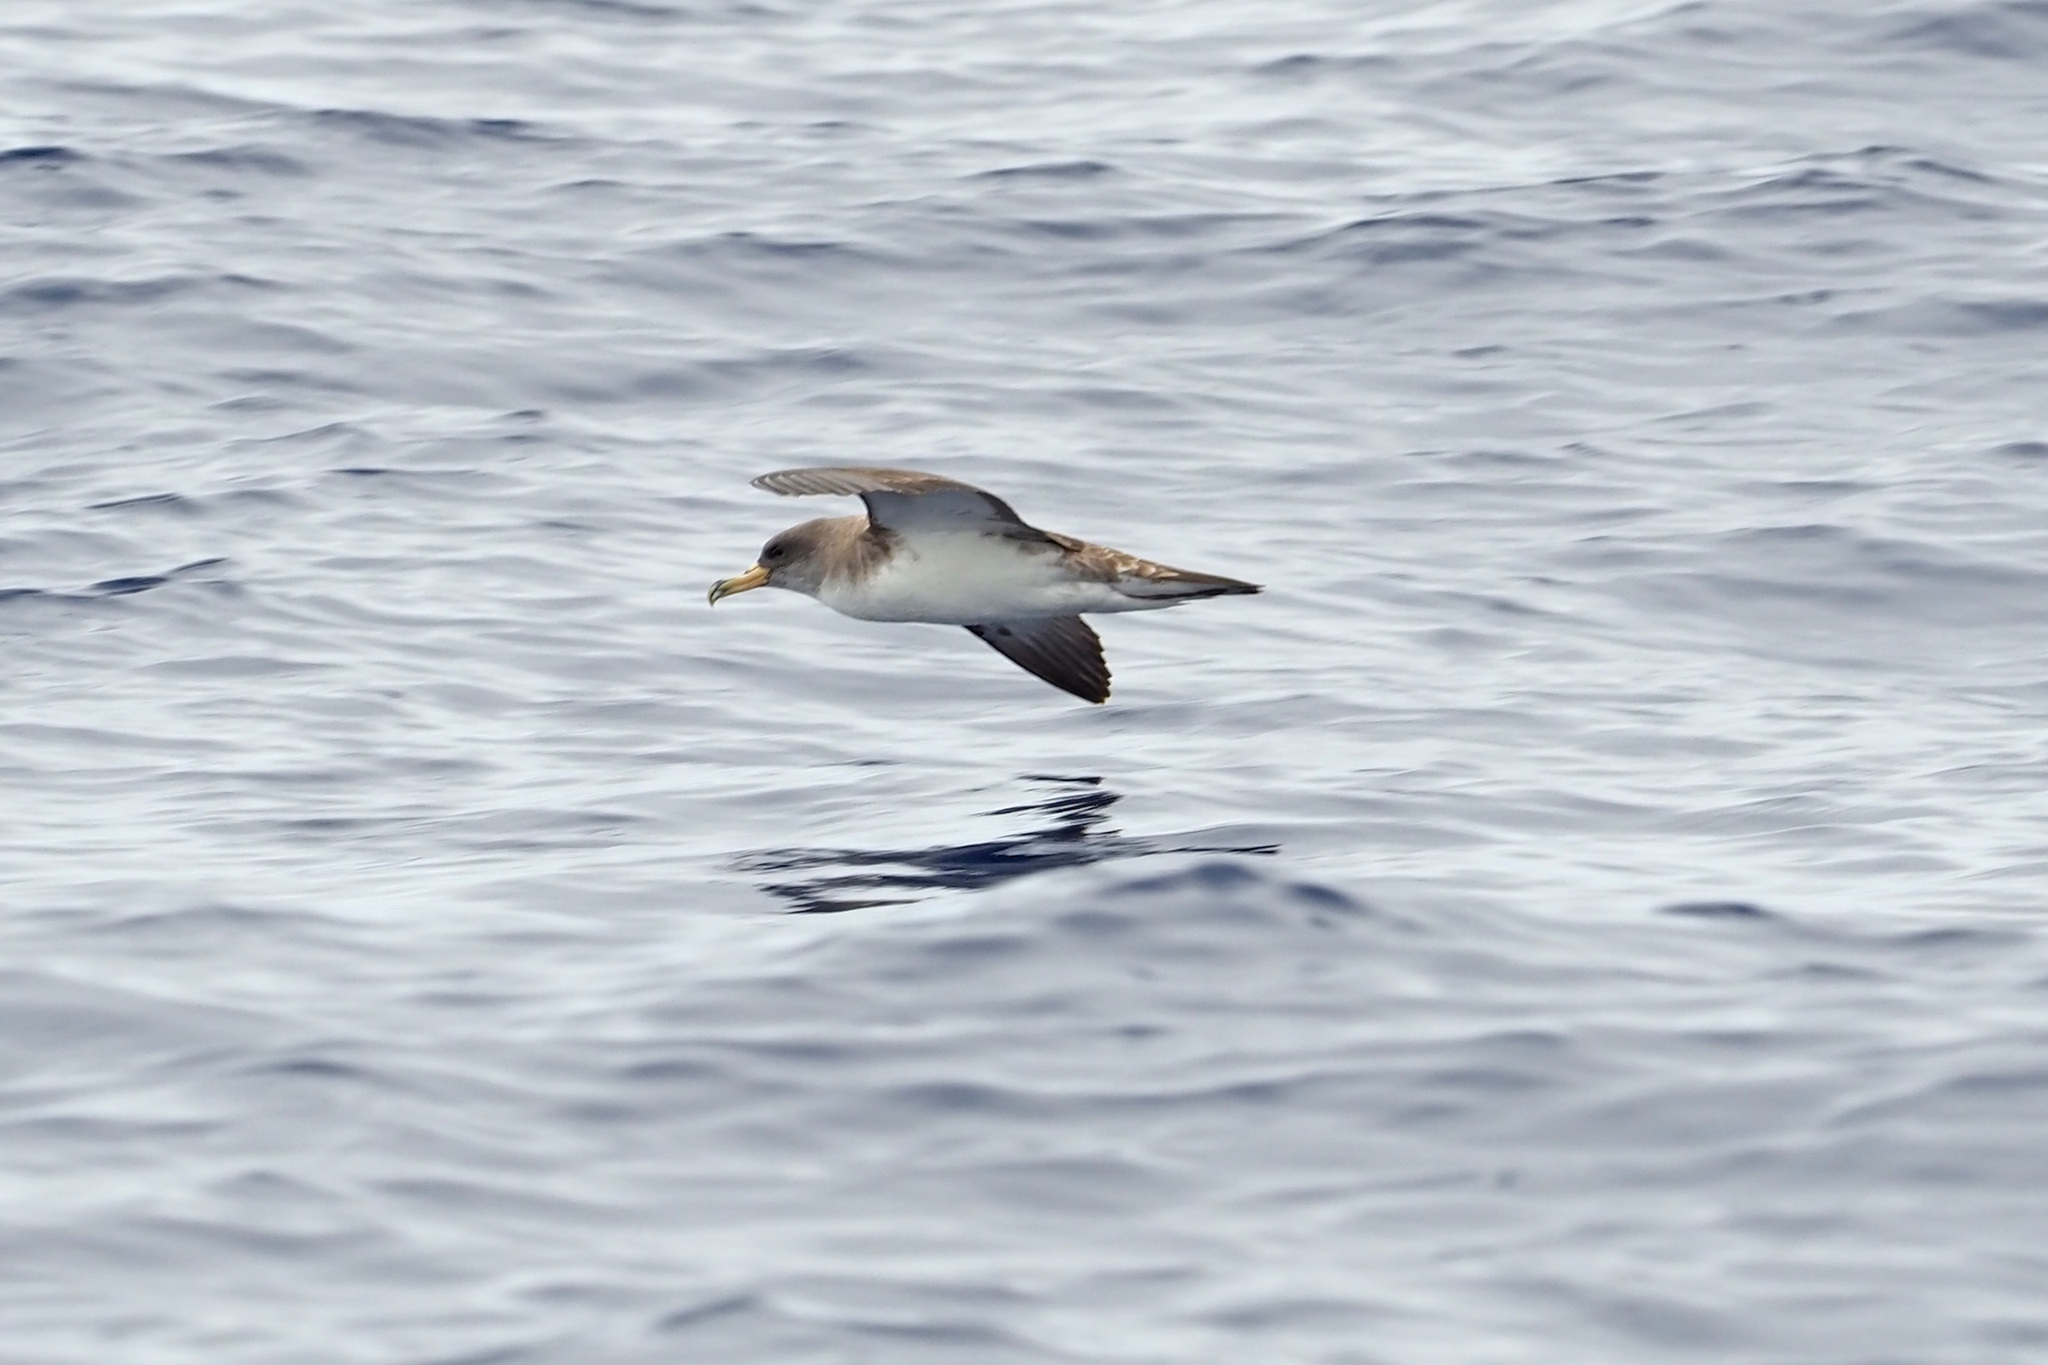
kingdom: Animalia
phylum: Chordata
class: Aves
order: Procellariiformes
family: Procellariidae
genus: Calonectris
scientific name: Calonectris diomedea
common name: Cory's shearwater
